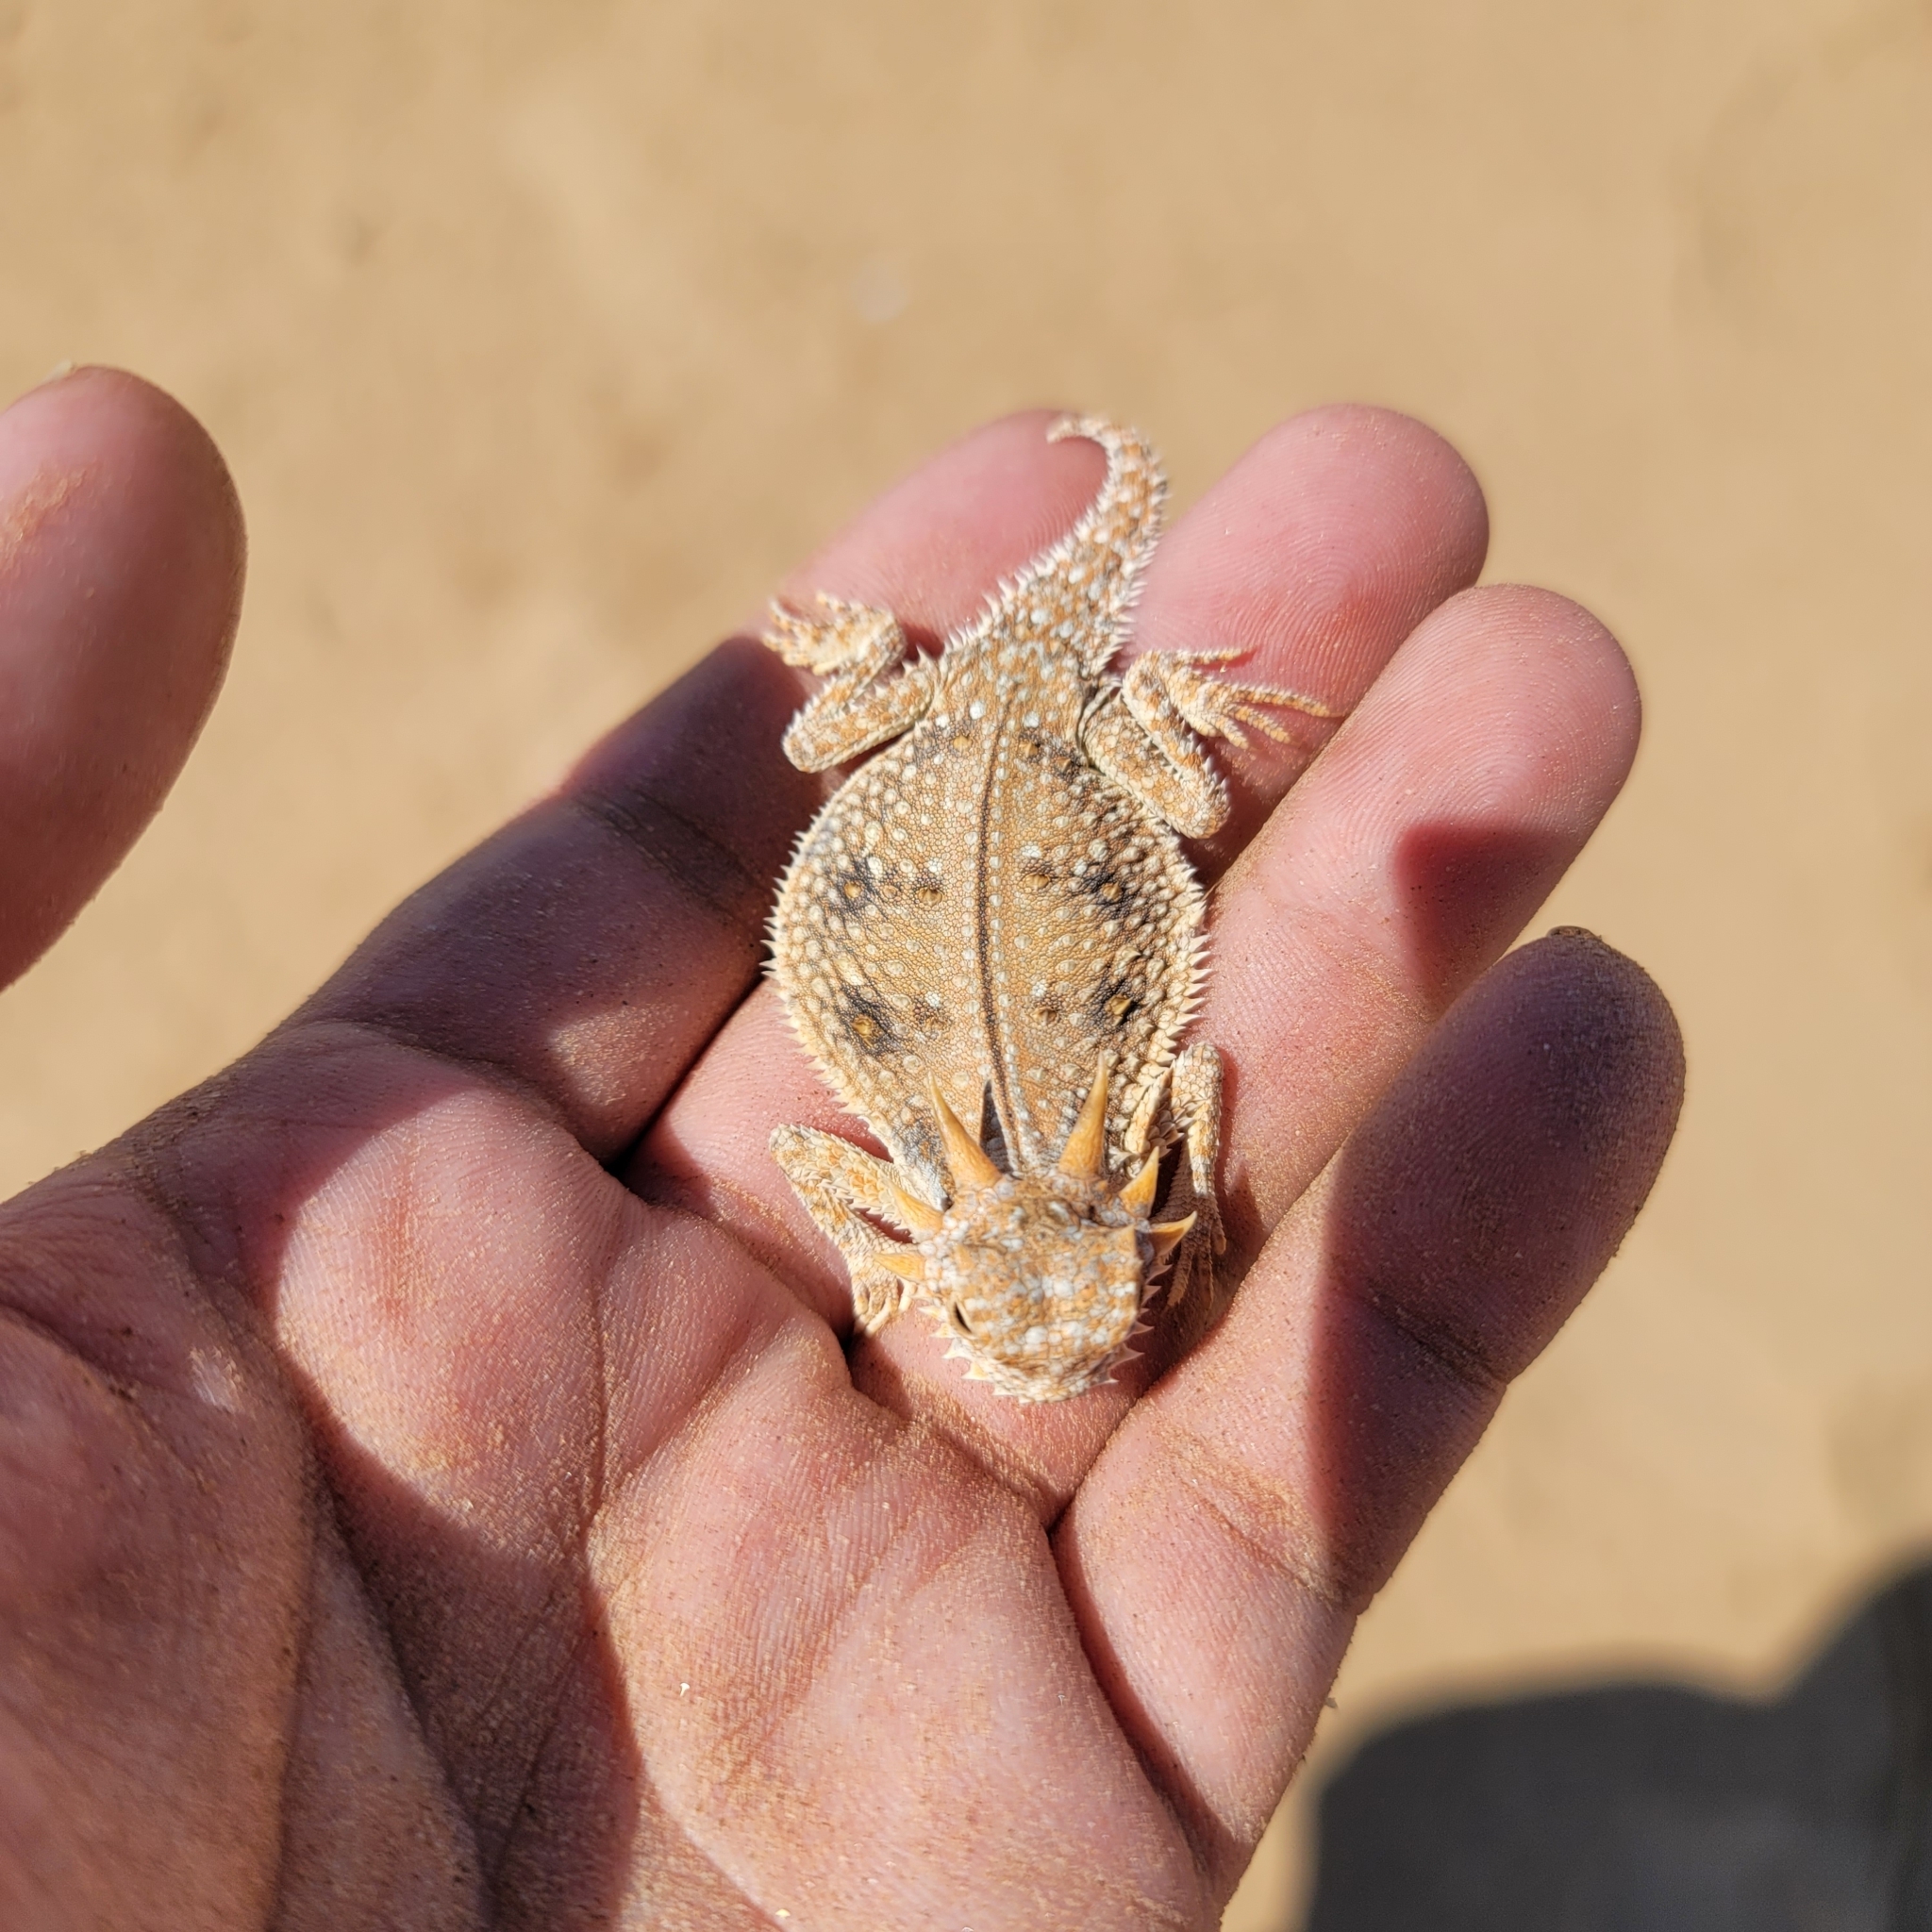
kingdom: Animalia
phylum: Chordata
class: Squamata
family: Phrynosomatidae
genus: Phrynosoma
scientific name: Phrynosoma mcallii
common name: Flat-tailed horned lizard
